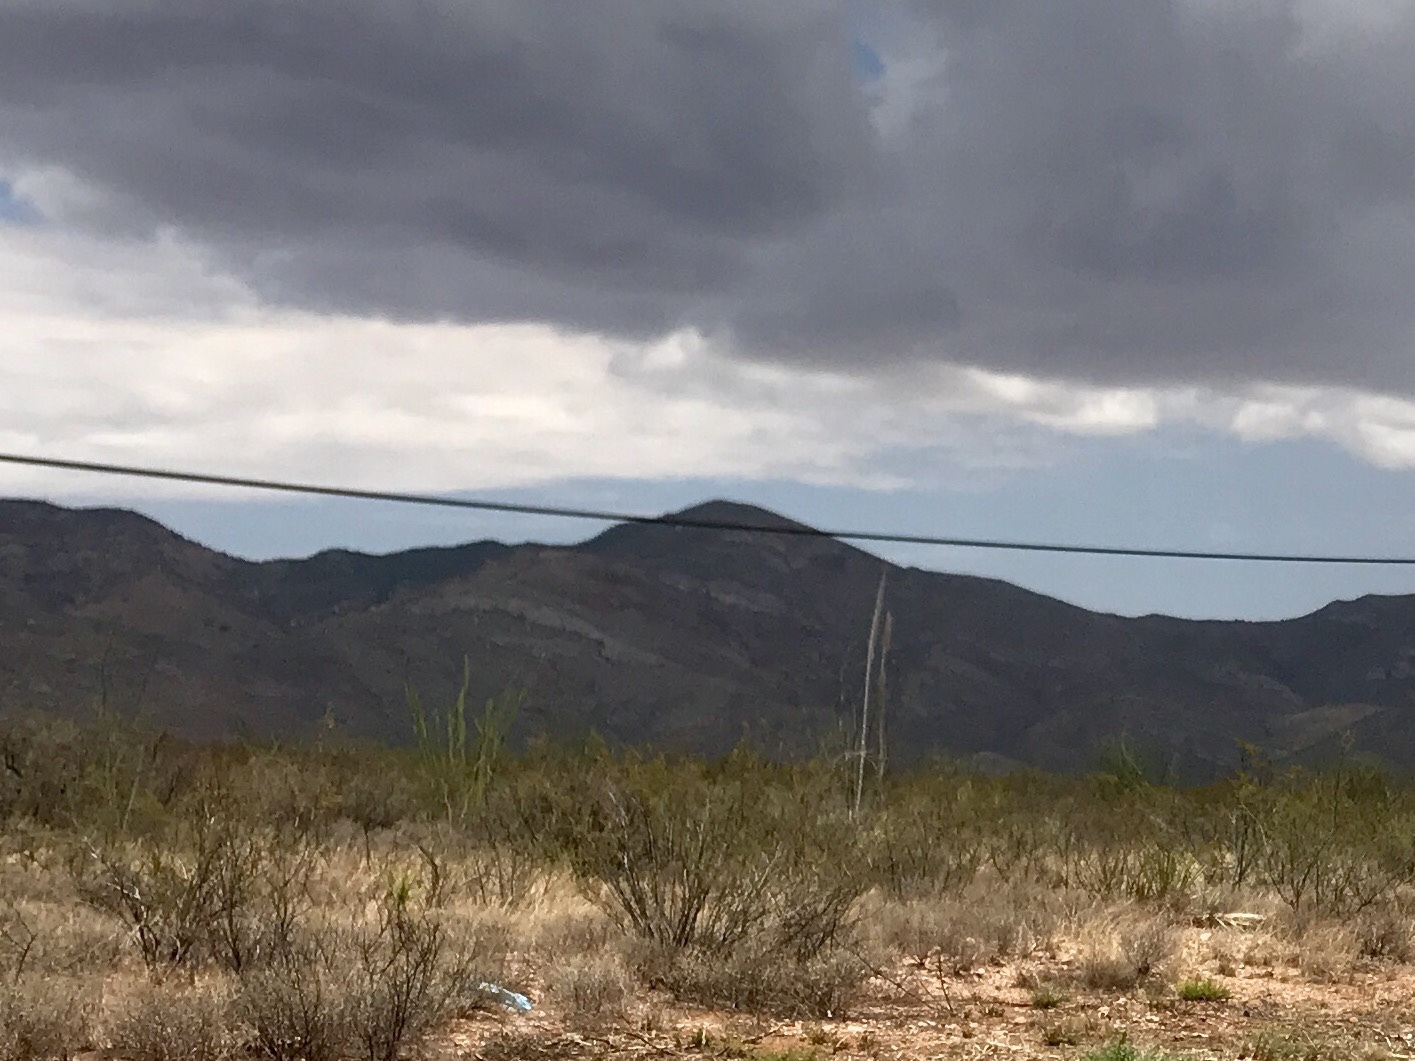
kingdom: Plantae
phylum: Tracheophyta
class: Magnoliopsida
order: Zygophyllales
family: Zygophyllaceae
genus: Larrea
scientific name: Larrea tridentata
